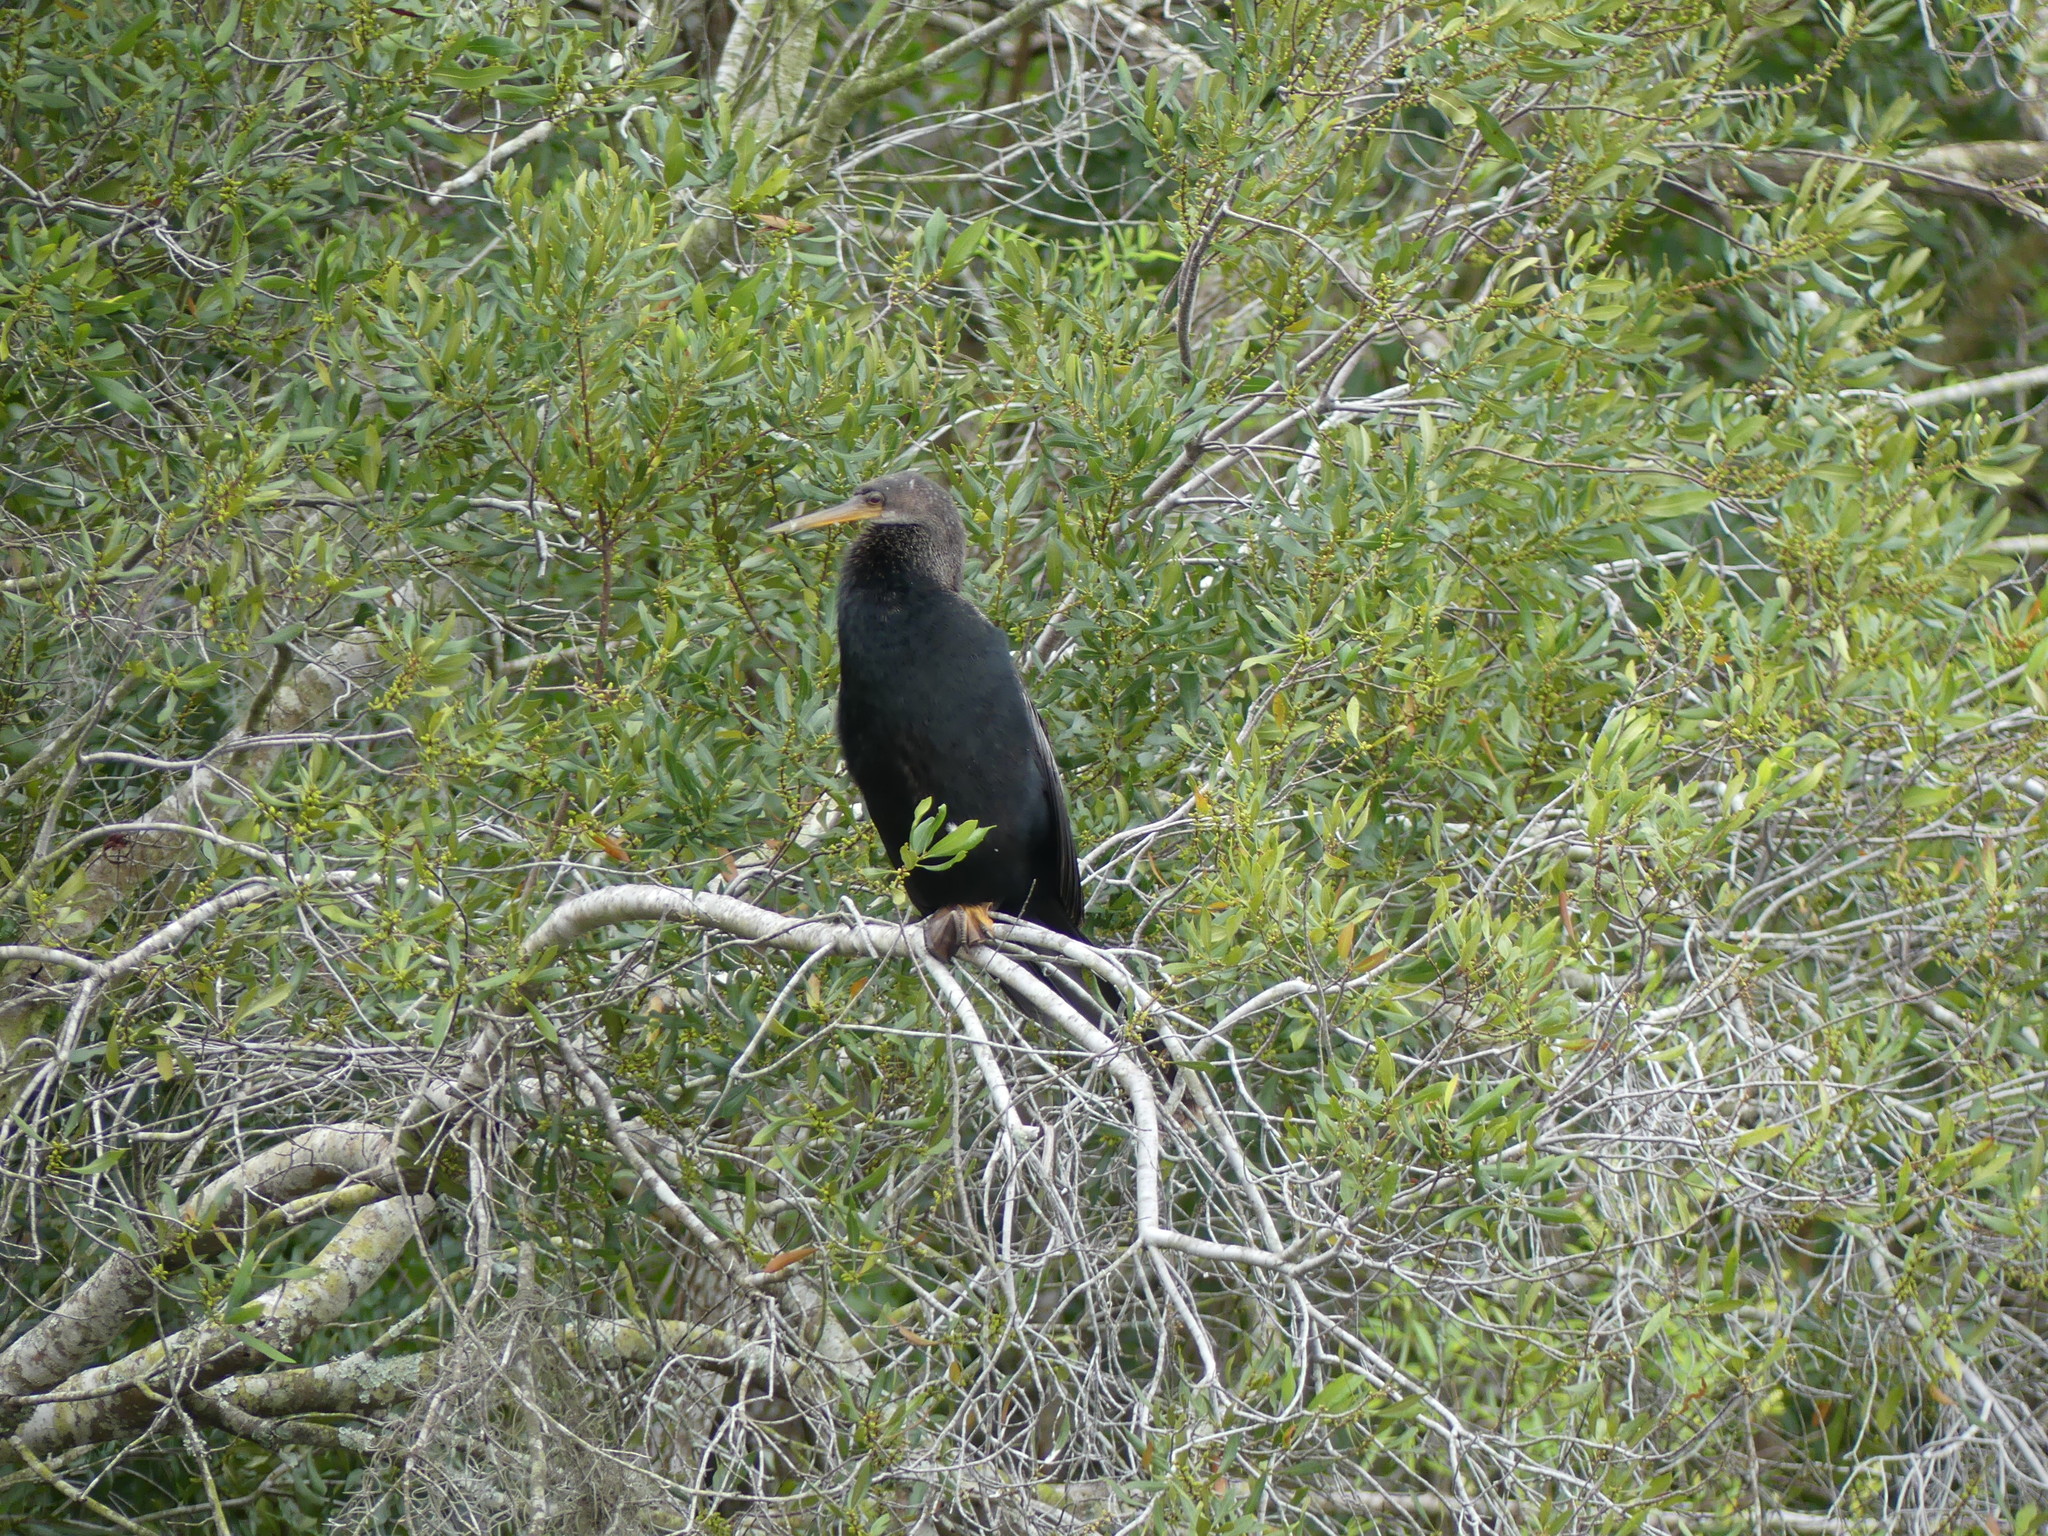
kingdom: Animalia
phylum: Chordata
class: Aves
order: Suliformes
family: Anhingidae
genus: Anhinga
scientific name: Anhinga anhinga
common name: Anhinga
